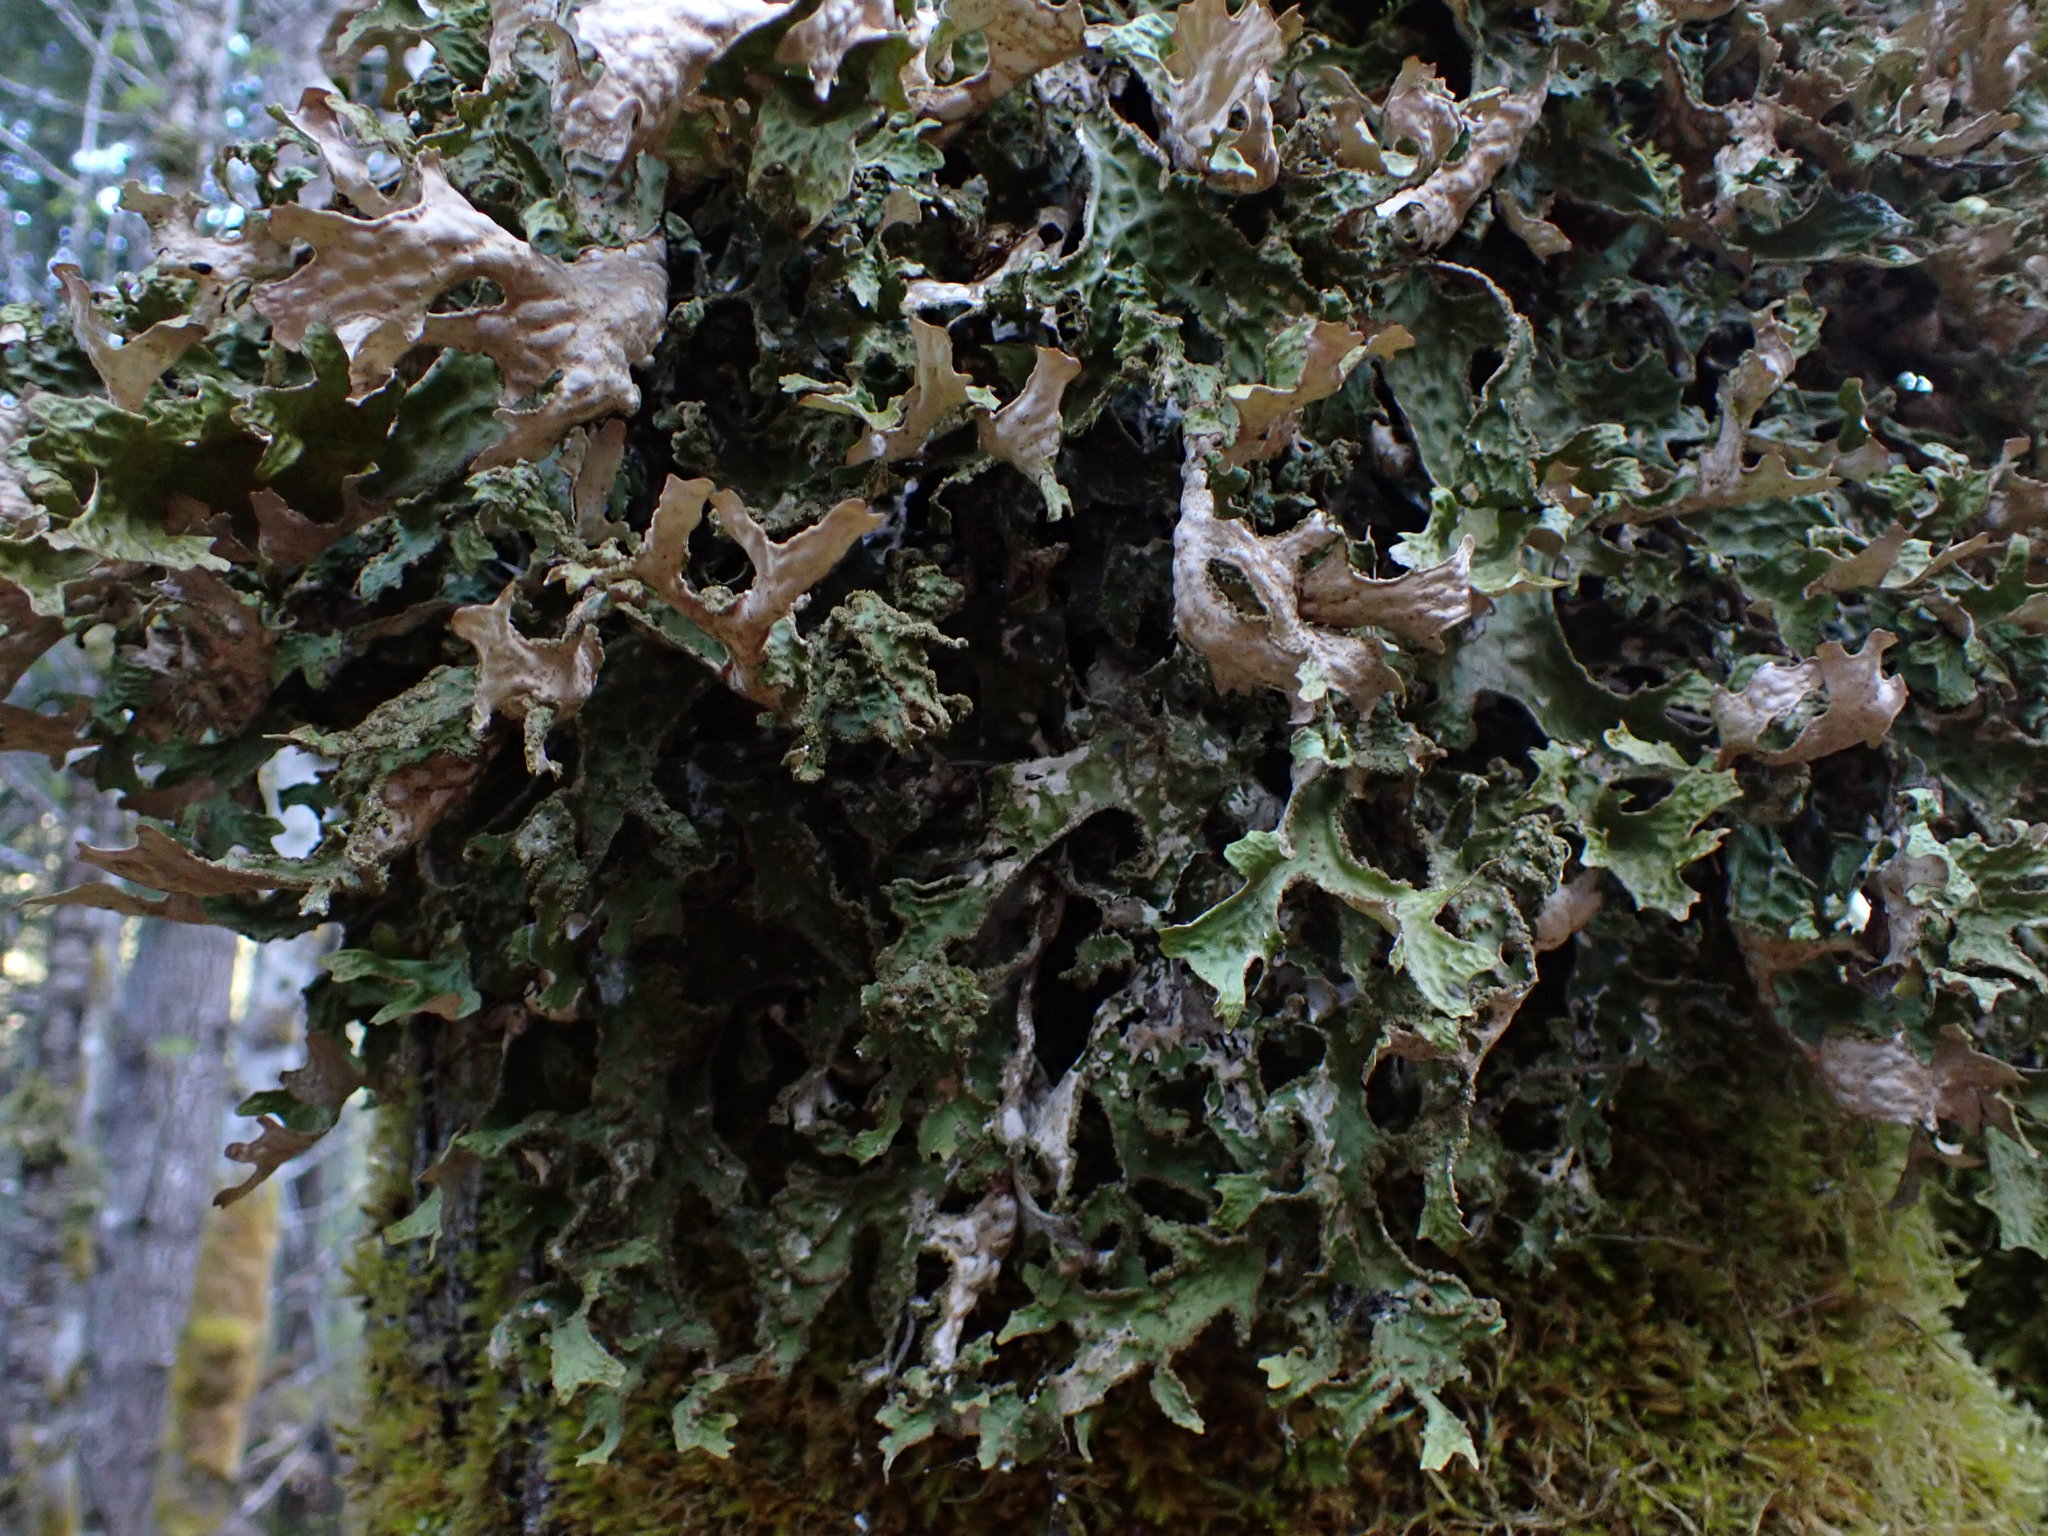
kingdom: Fungi
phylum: Ascomycota
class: Lecanoromycetes
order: Peltigerales
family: Lobariaceae
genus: Lobaria
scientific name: Lobaria pulmonaria
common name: Lungwort
